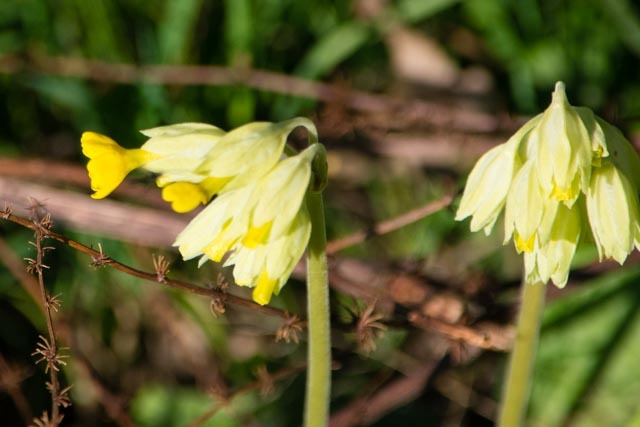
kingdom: Plantae
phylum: Tracheophyta
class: Magnoliopsida
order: Ericales
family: Primulaceae
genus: Primula
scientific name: Primula veris
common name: Cowslip
